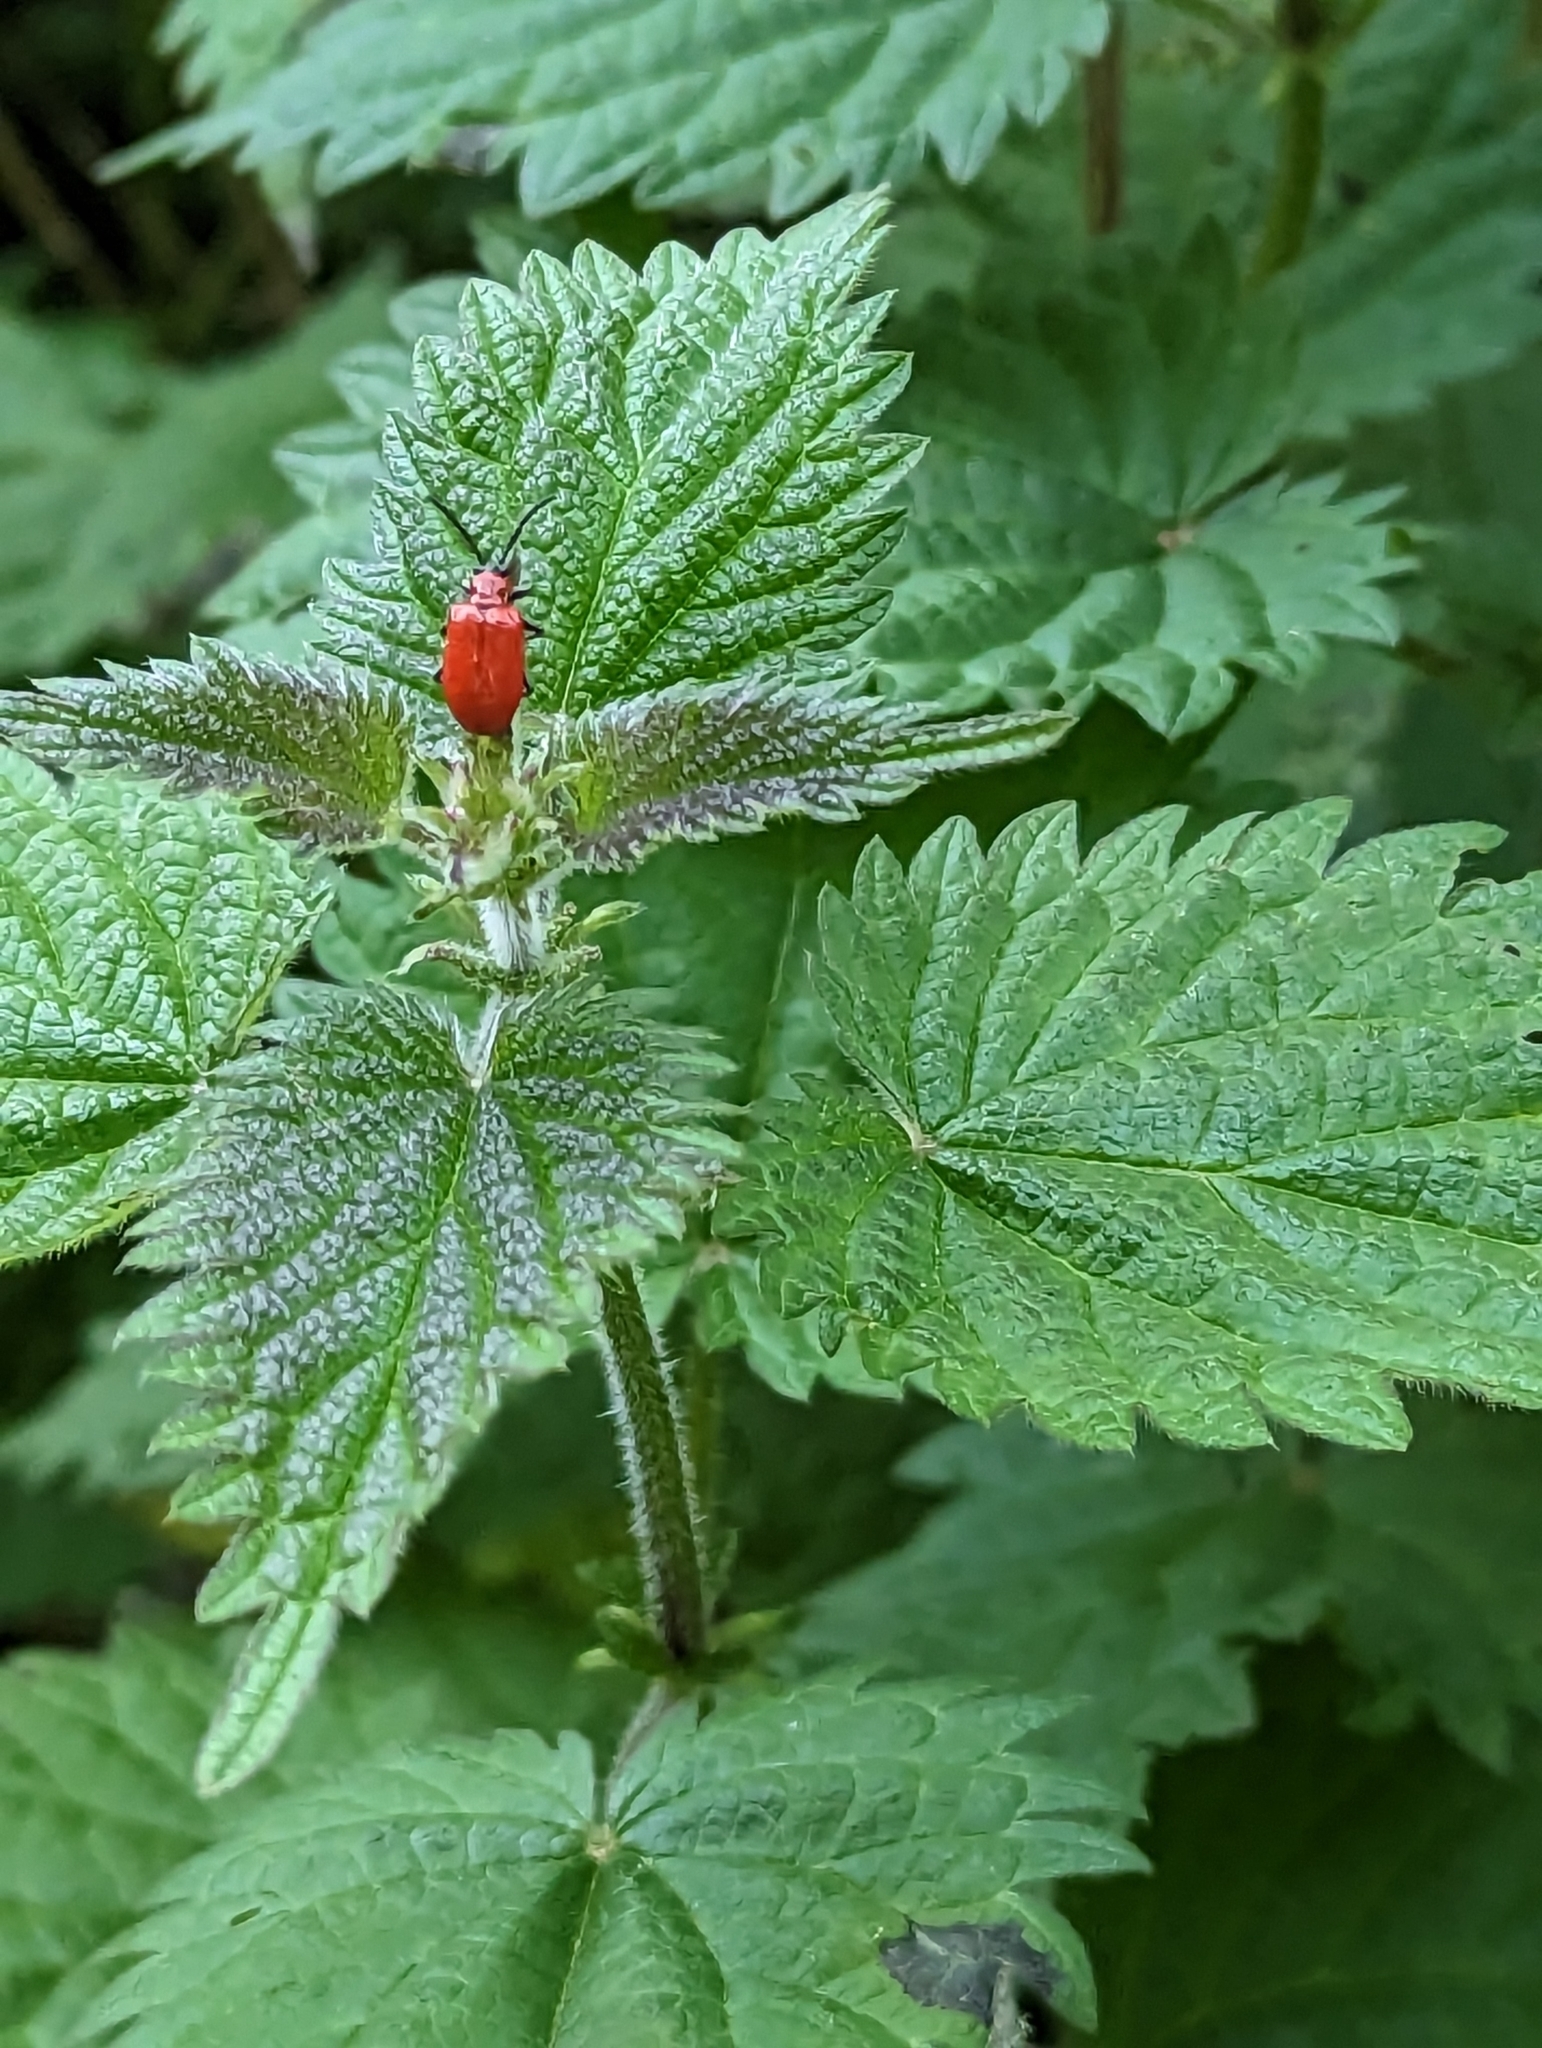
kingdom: Animalia
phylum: Arthropoda
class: Insecta
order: Coleoptera
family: Chrysomelidae
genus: Lilioceris
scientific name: Lilioceris lilii
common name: Lily beetle
